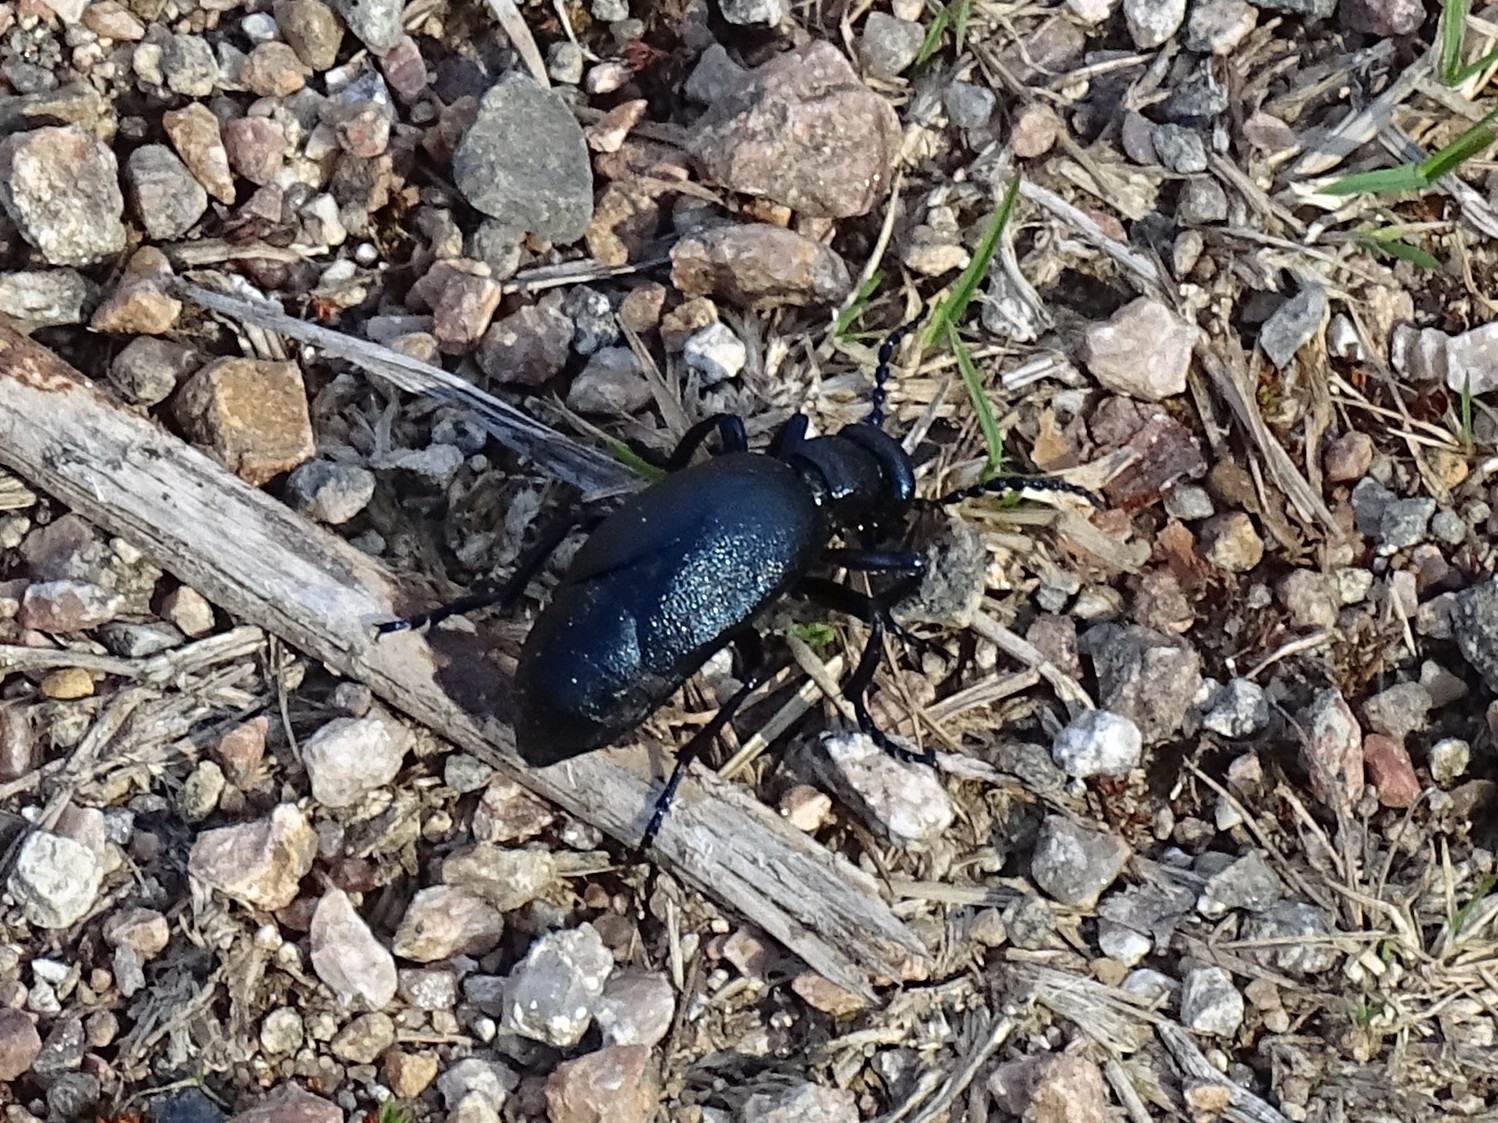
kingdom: Animalia
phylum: Arthropoda
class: Insecta
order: Coleoptera
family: Meloidae
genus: Meloe
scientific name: Meloe violaceus
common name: Violet oil-beetle
